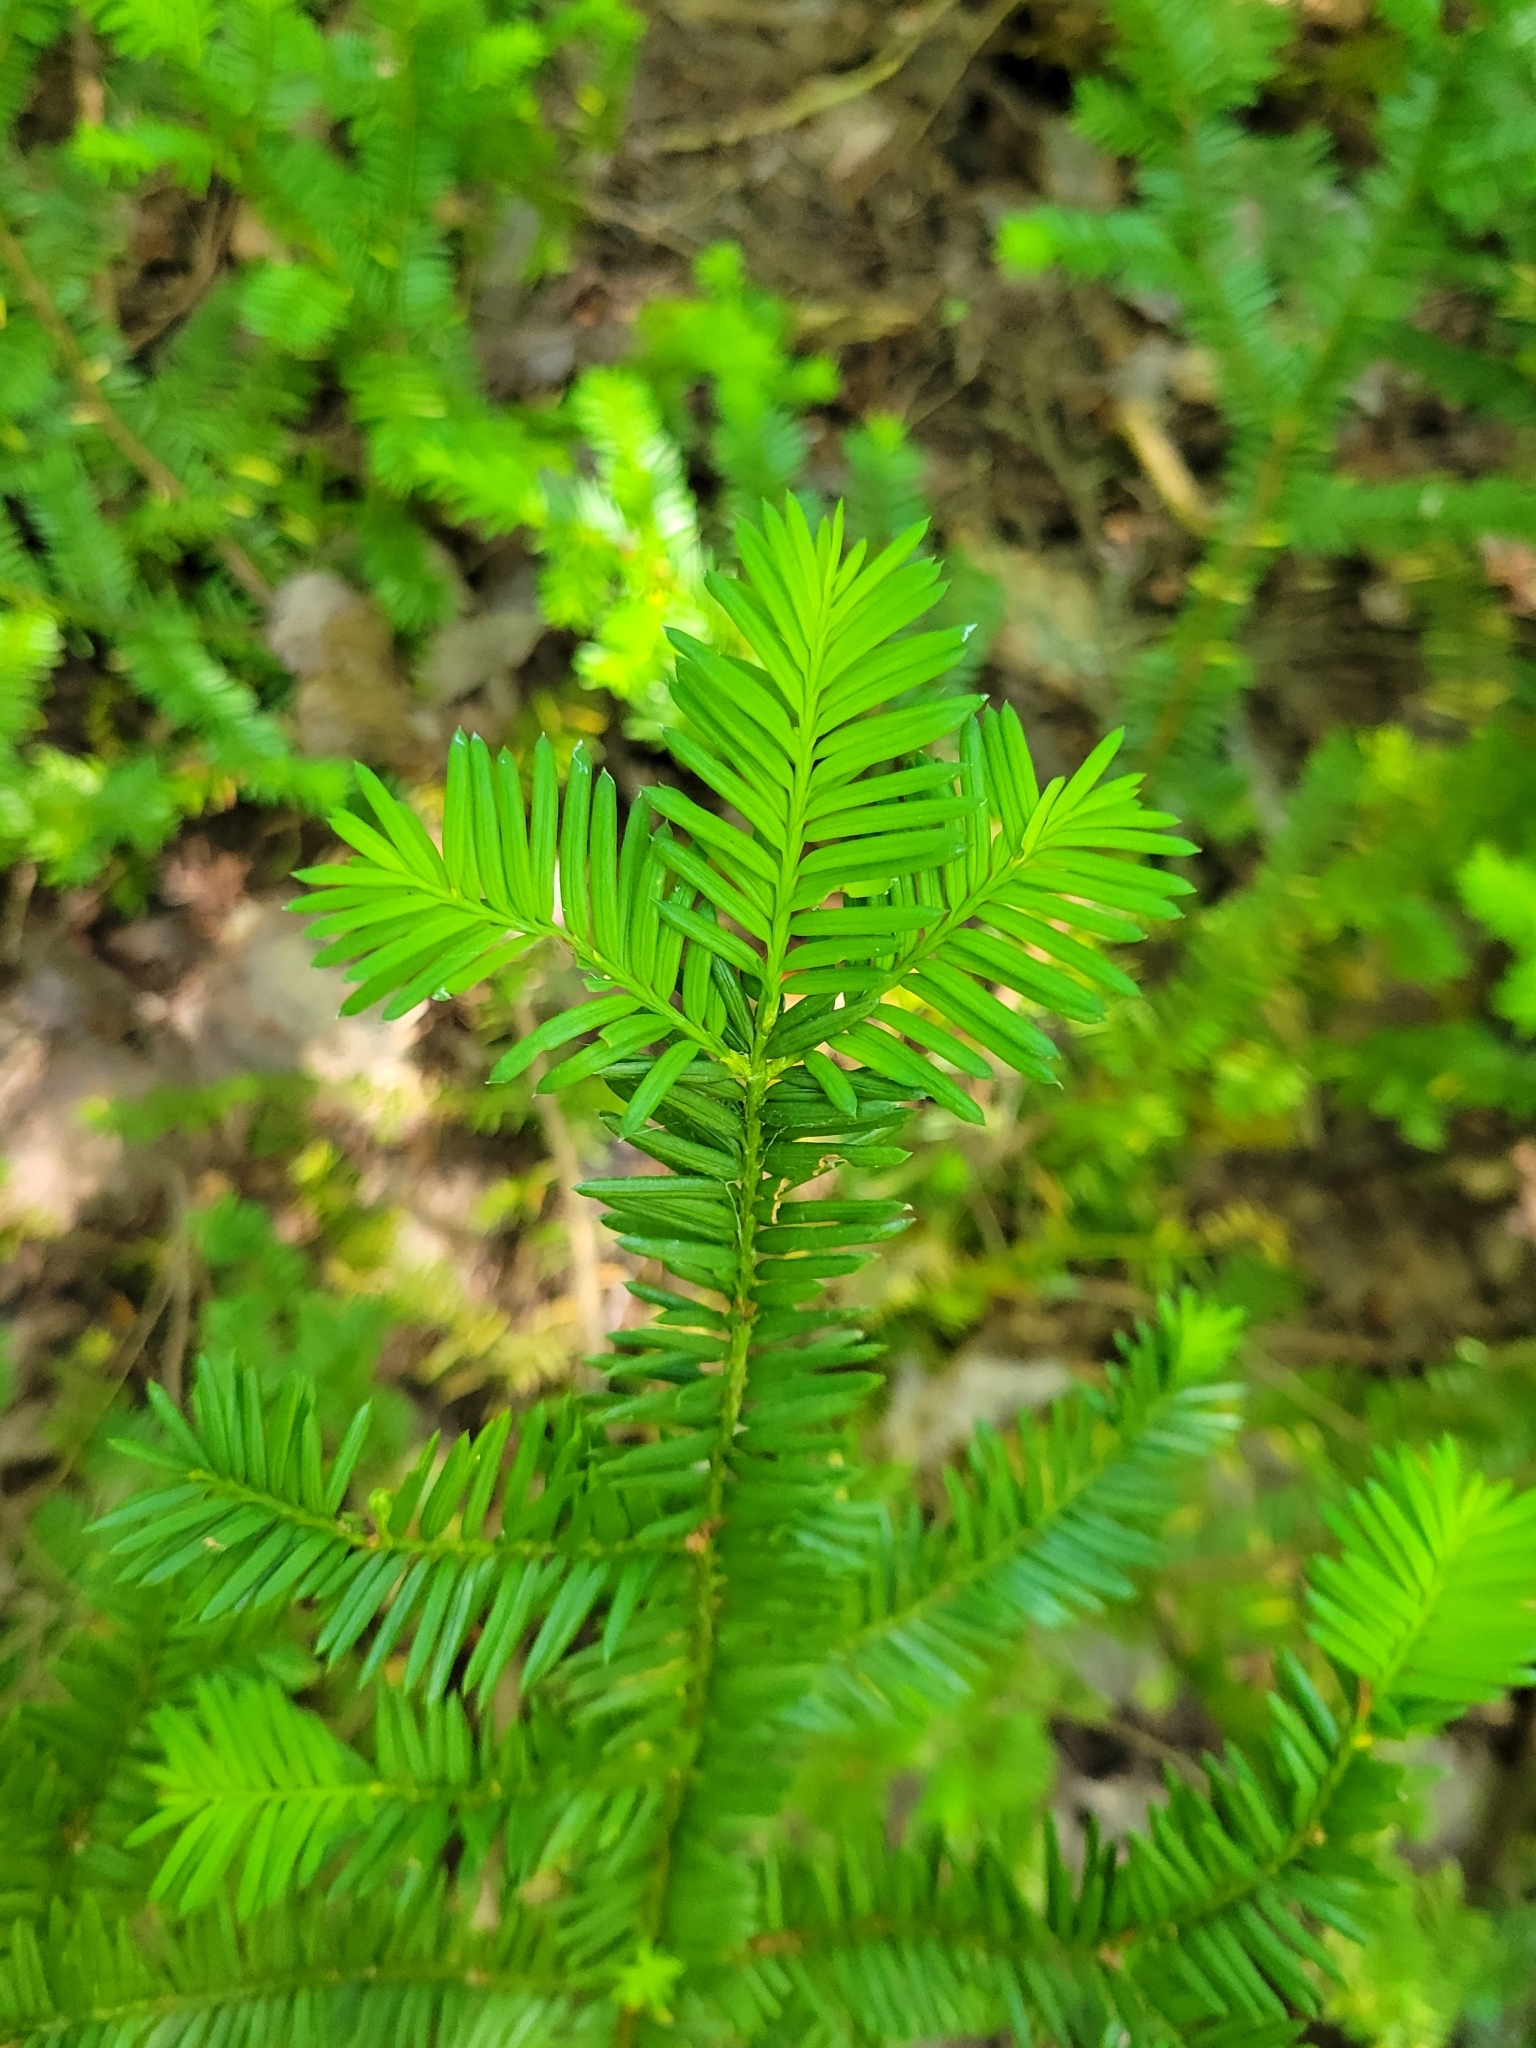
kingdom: Plantae
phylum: Tracheophyta
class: Pinopsida
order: Pinales
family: Taxaceae
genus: Taxus
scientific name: Taxus canadensis
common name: American yew
